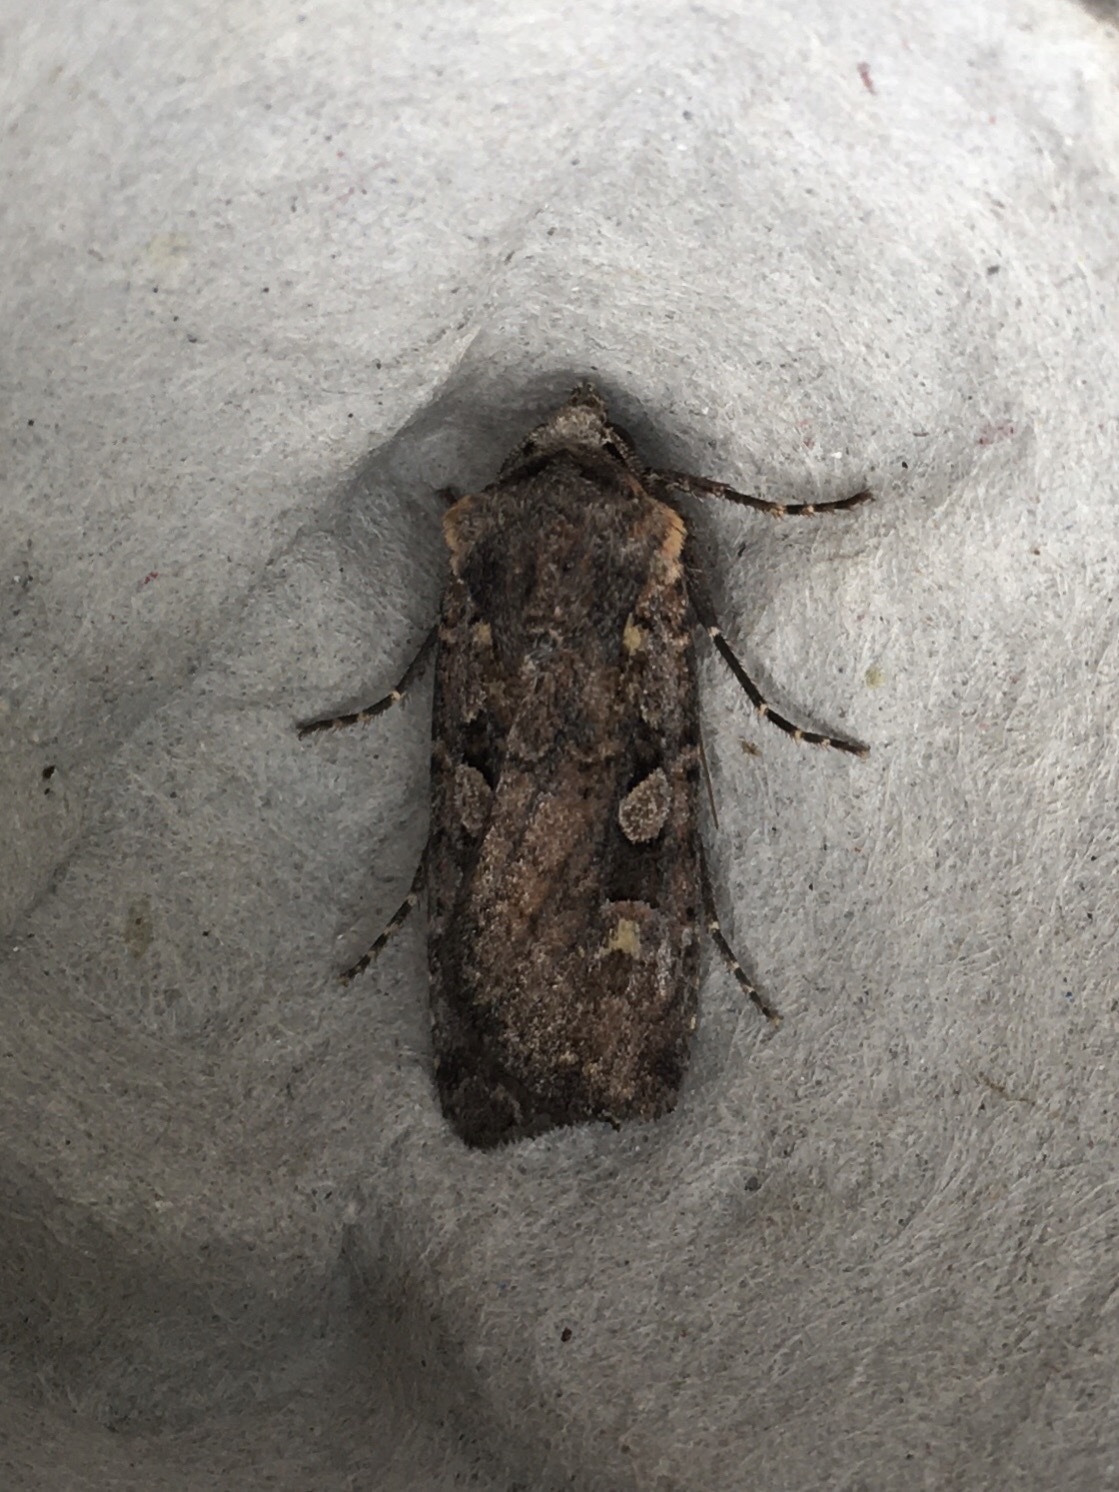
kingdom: Animalia
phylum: Arthropoda
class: Insecta
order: Lepidoptera
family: Noctuidae
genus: Euxoa
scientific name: Euxoa tessellata
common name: Striped cutworm
